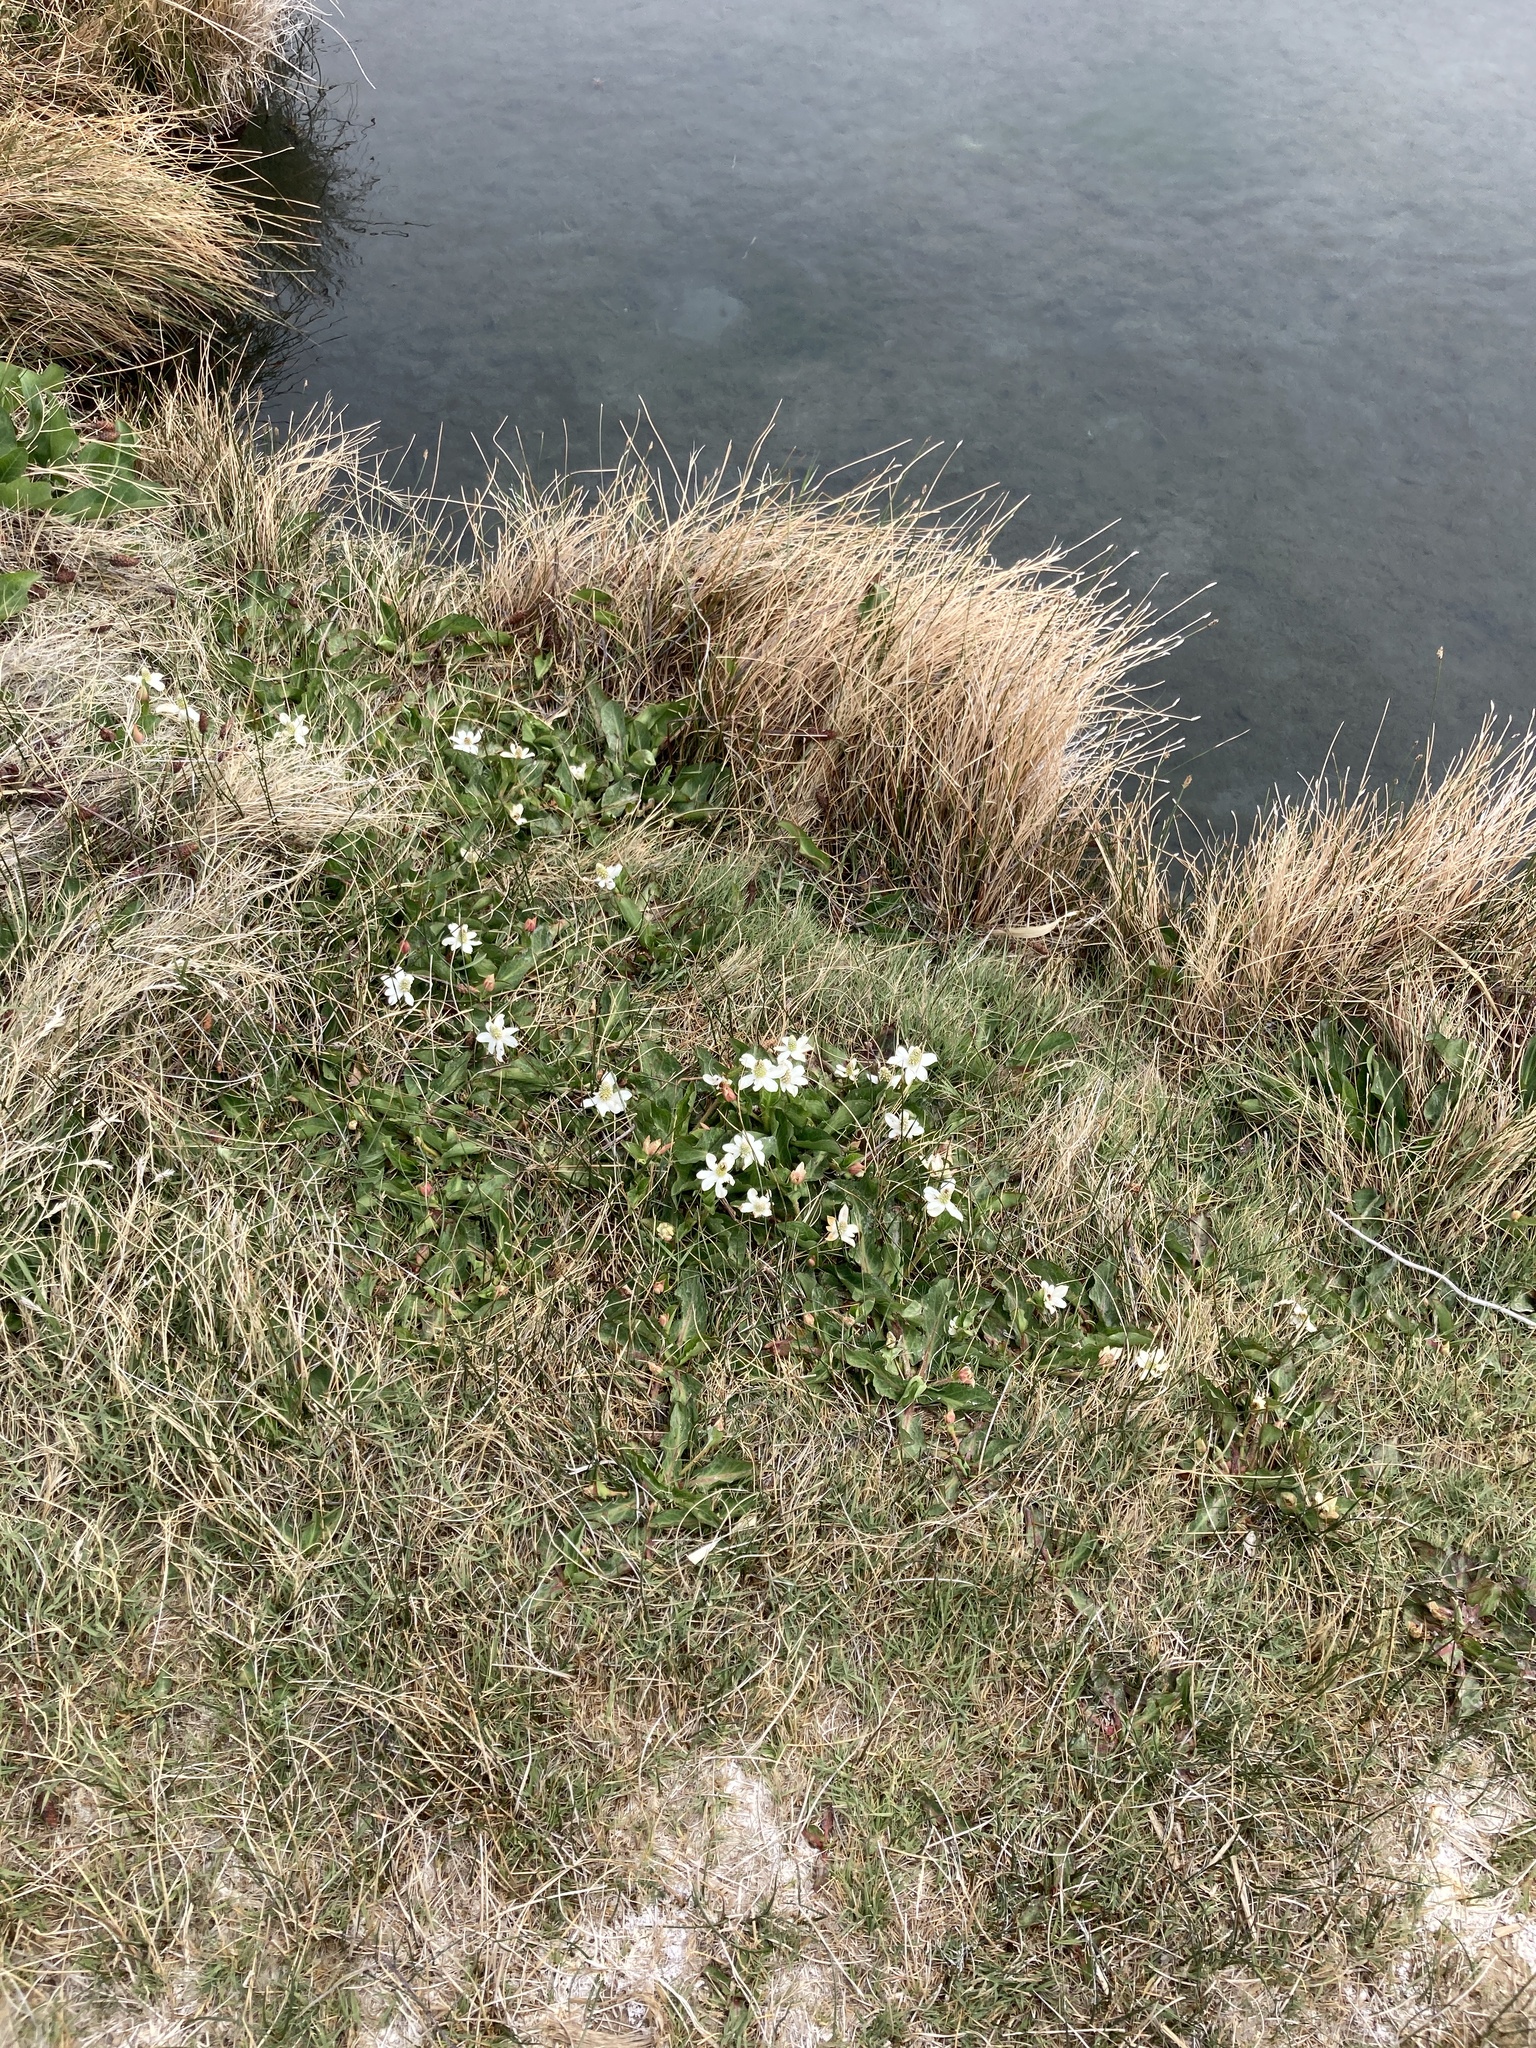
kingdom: Plantae
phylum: Tracheophyta
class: Magnoliopsida
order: Piperales
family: Saururaceae
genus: Anemopsis
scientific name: Anemopsis californica
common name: Apache-beads
